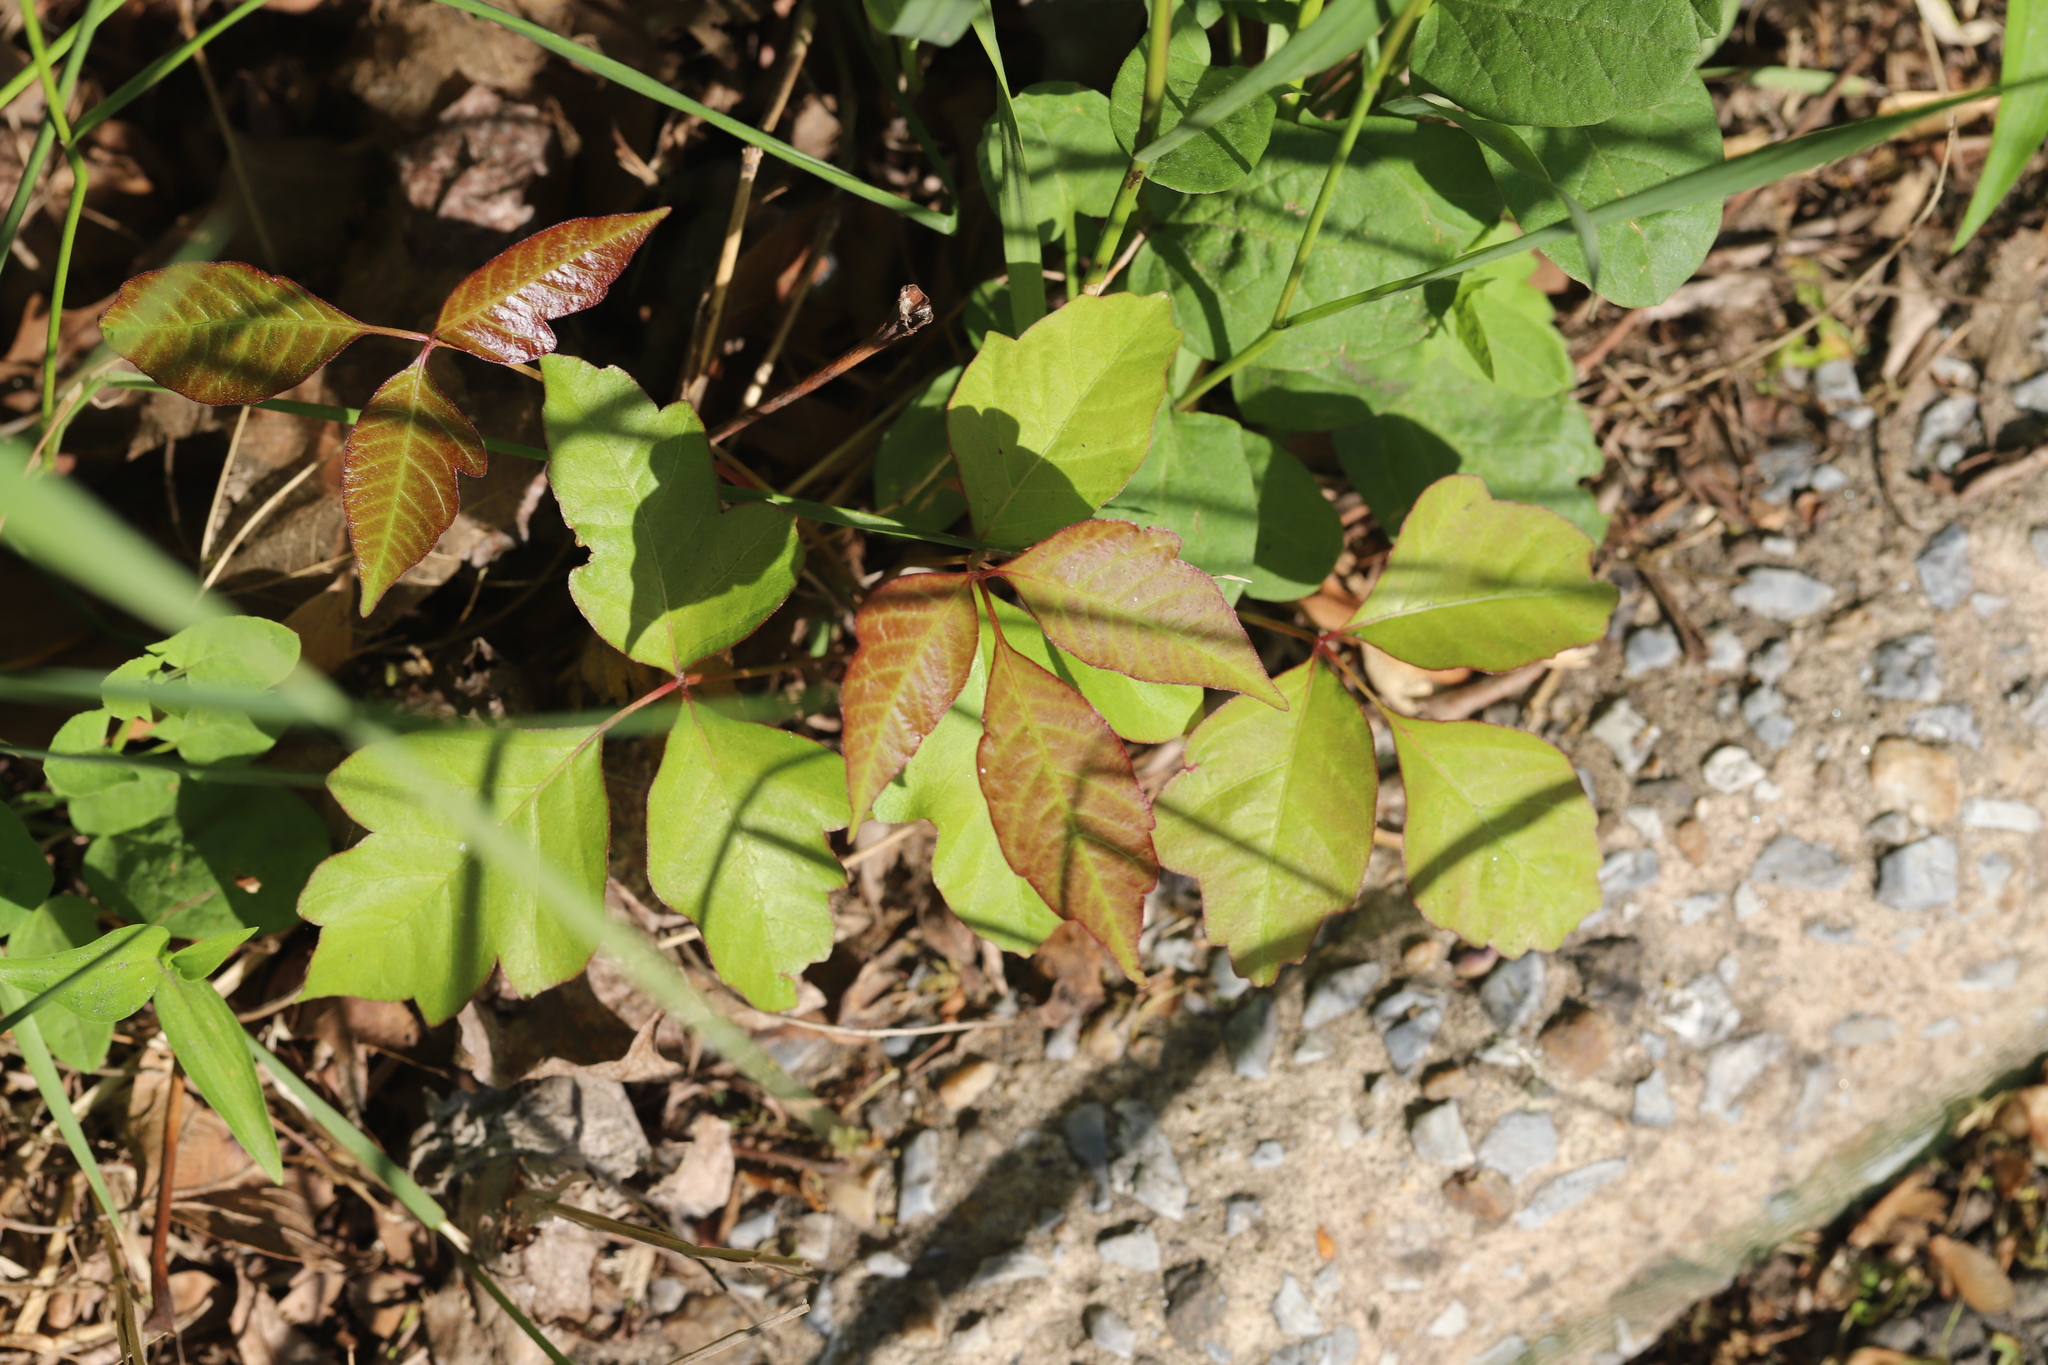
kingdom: Plantae
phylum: Tracheophyta
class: Magnoliopsida
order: Sapindales
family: Anacardiaceae
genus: Toxicodendron
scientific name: Toxicodendron radicans
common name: Poison ivy
